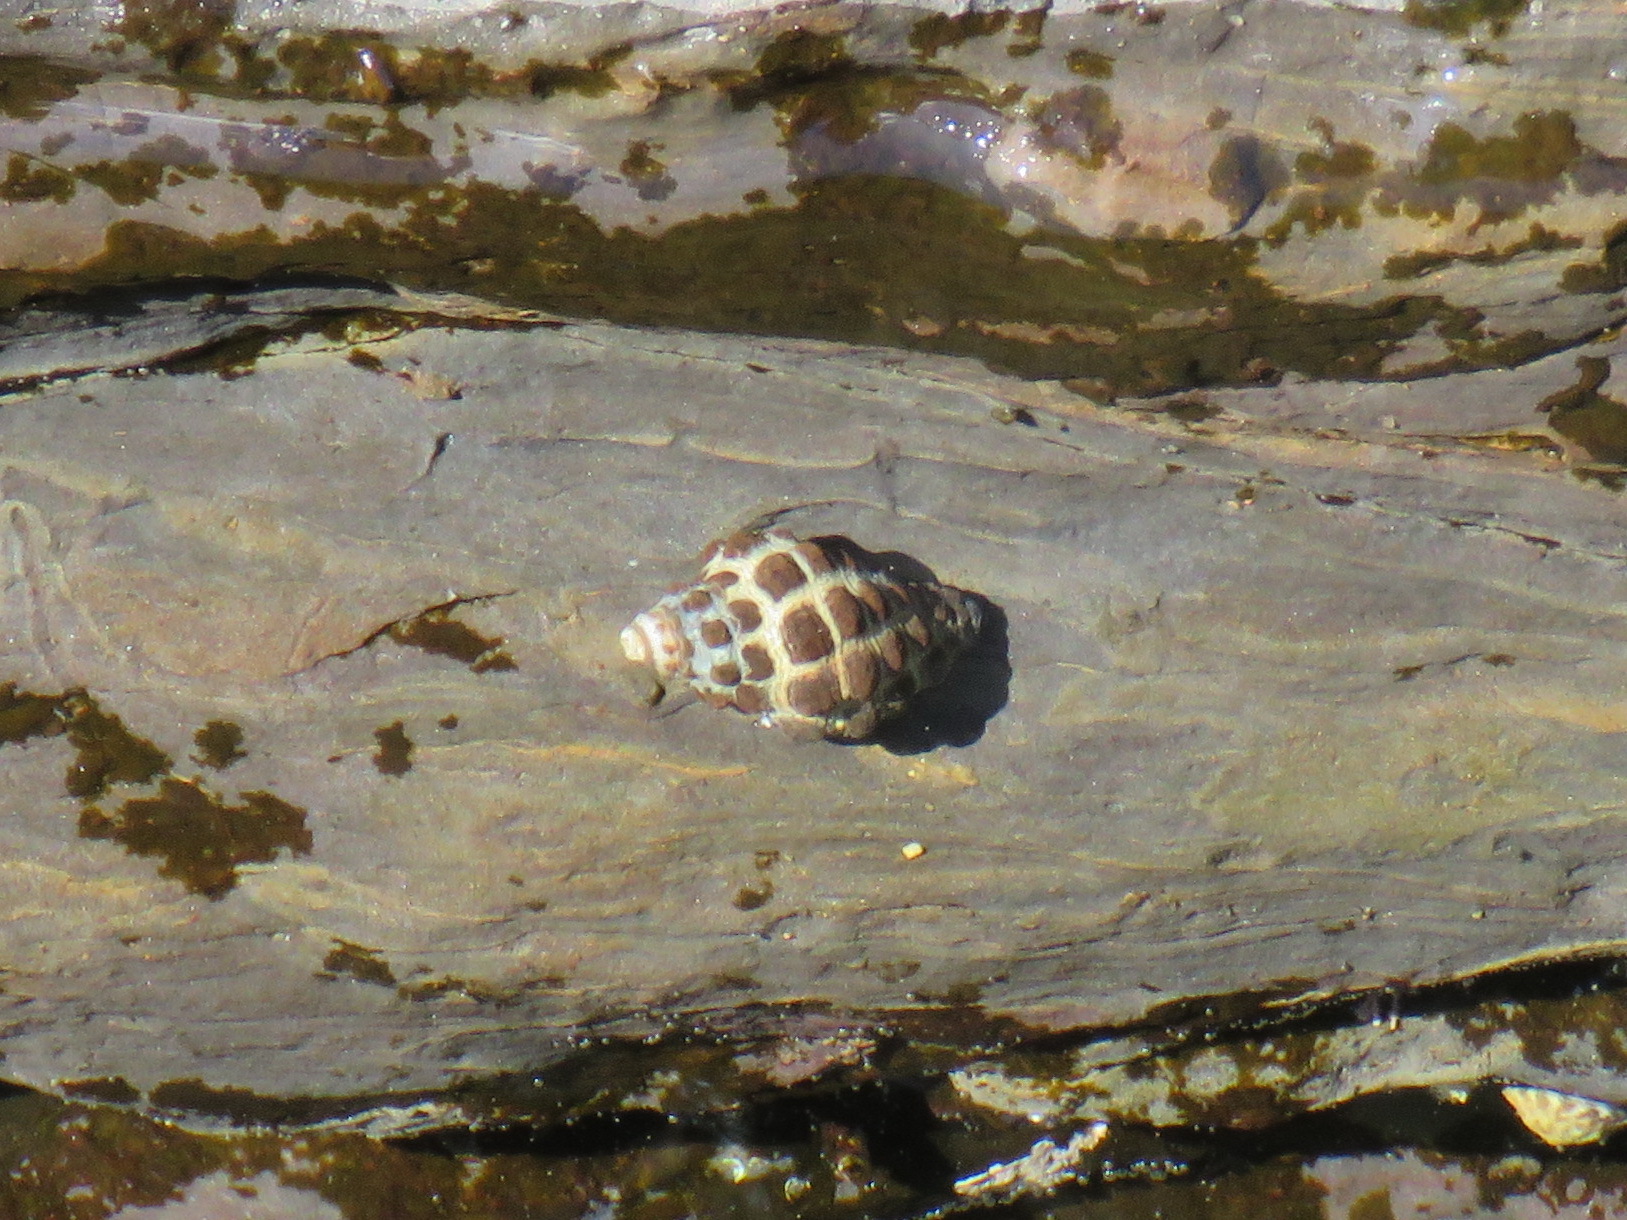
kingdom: Animalia
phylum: Mollusca
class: Gastropoda
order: Neogastropoda
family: Muricidae
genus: Tenguella
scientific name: Tenguella marginalba
